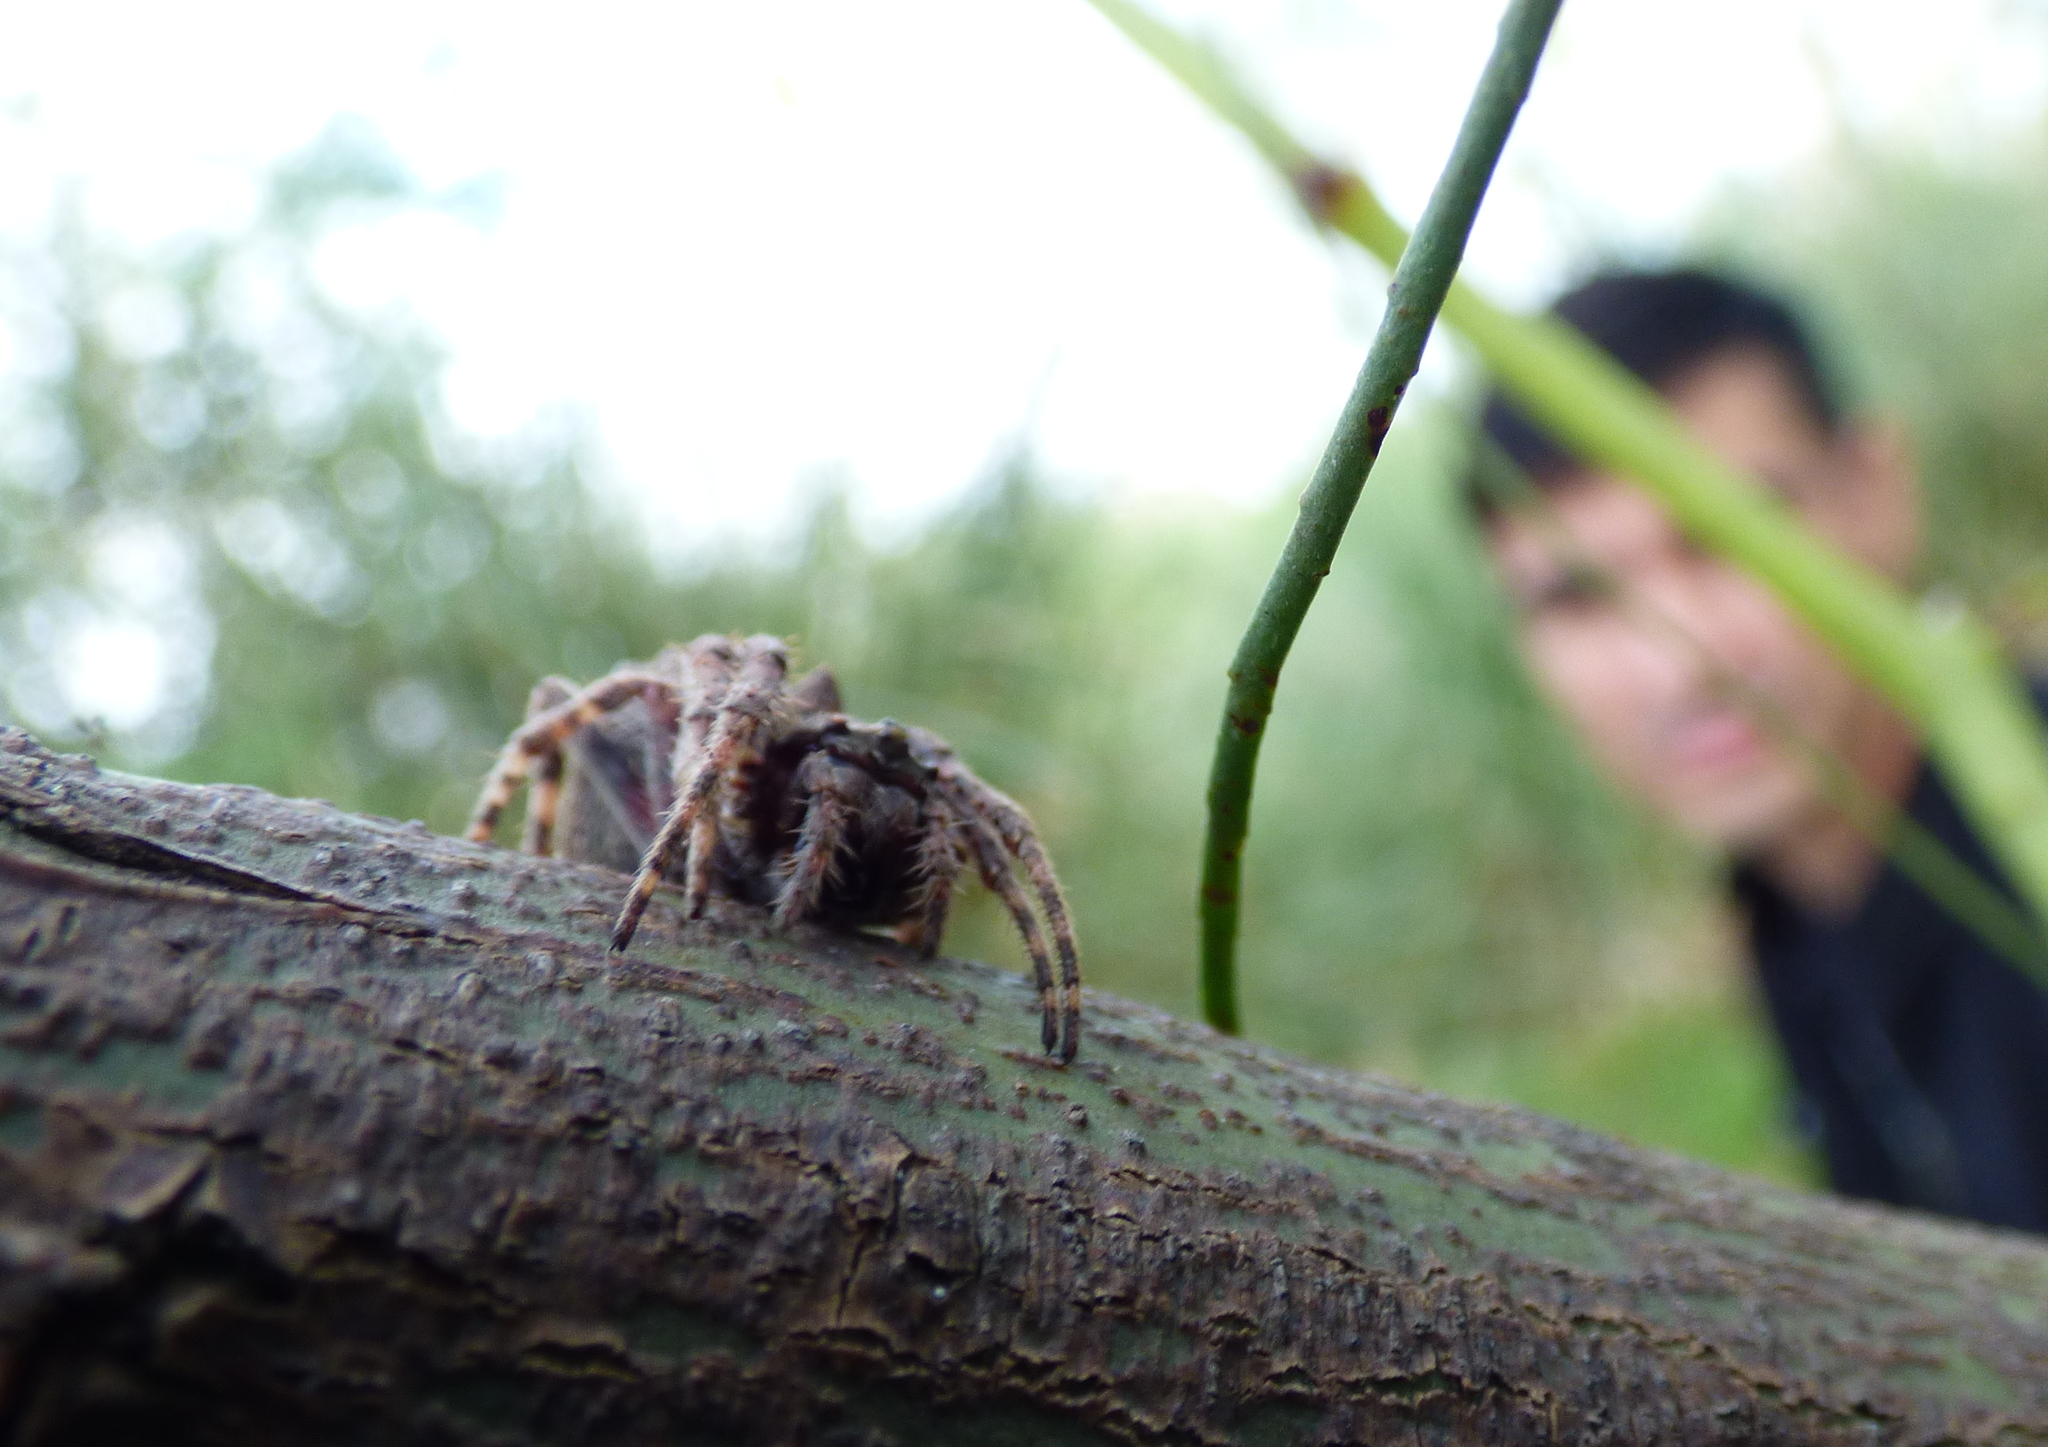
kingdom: Animalia
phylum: Arthropoda
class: Arachnida
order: Araneae
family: Araneidae
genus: Parawixia
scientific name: Parawixia audax
